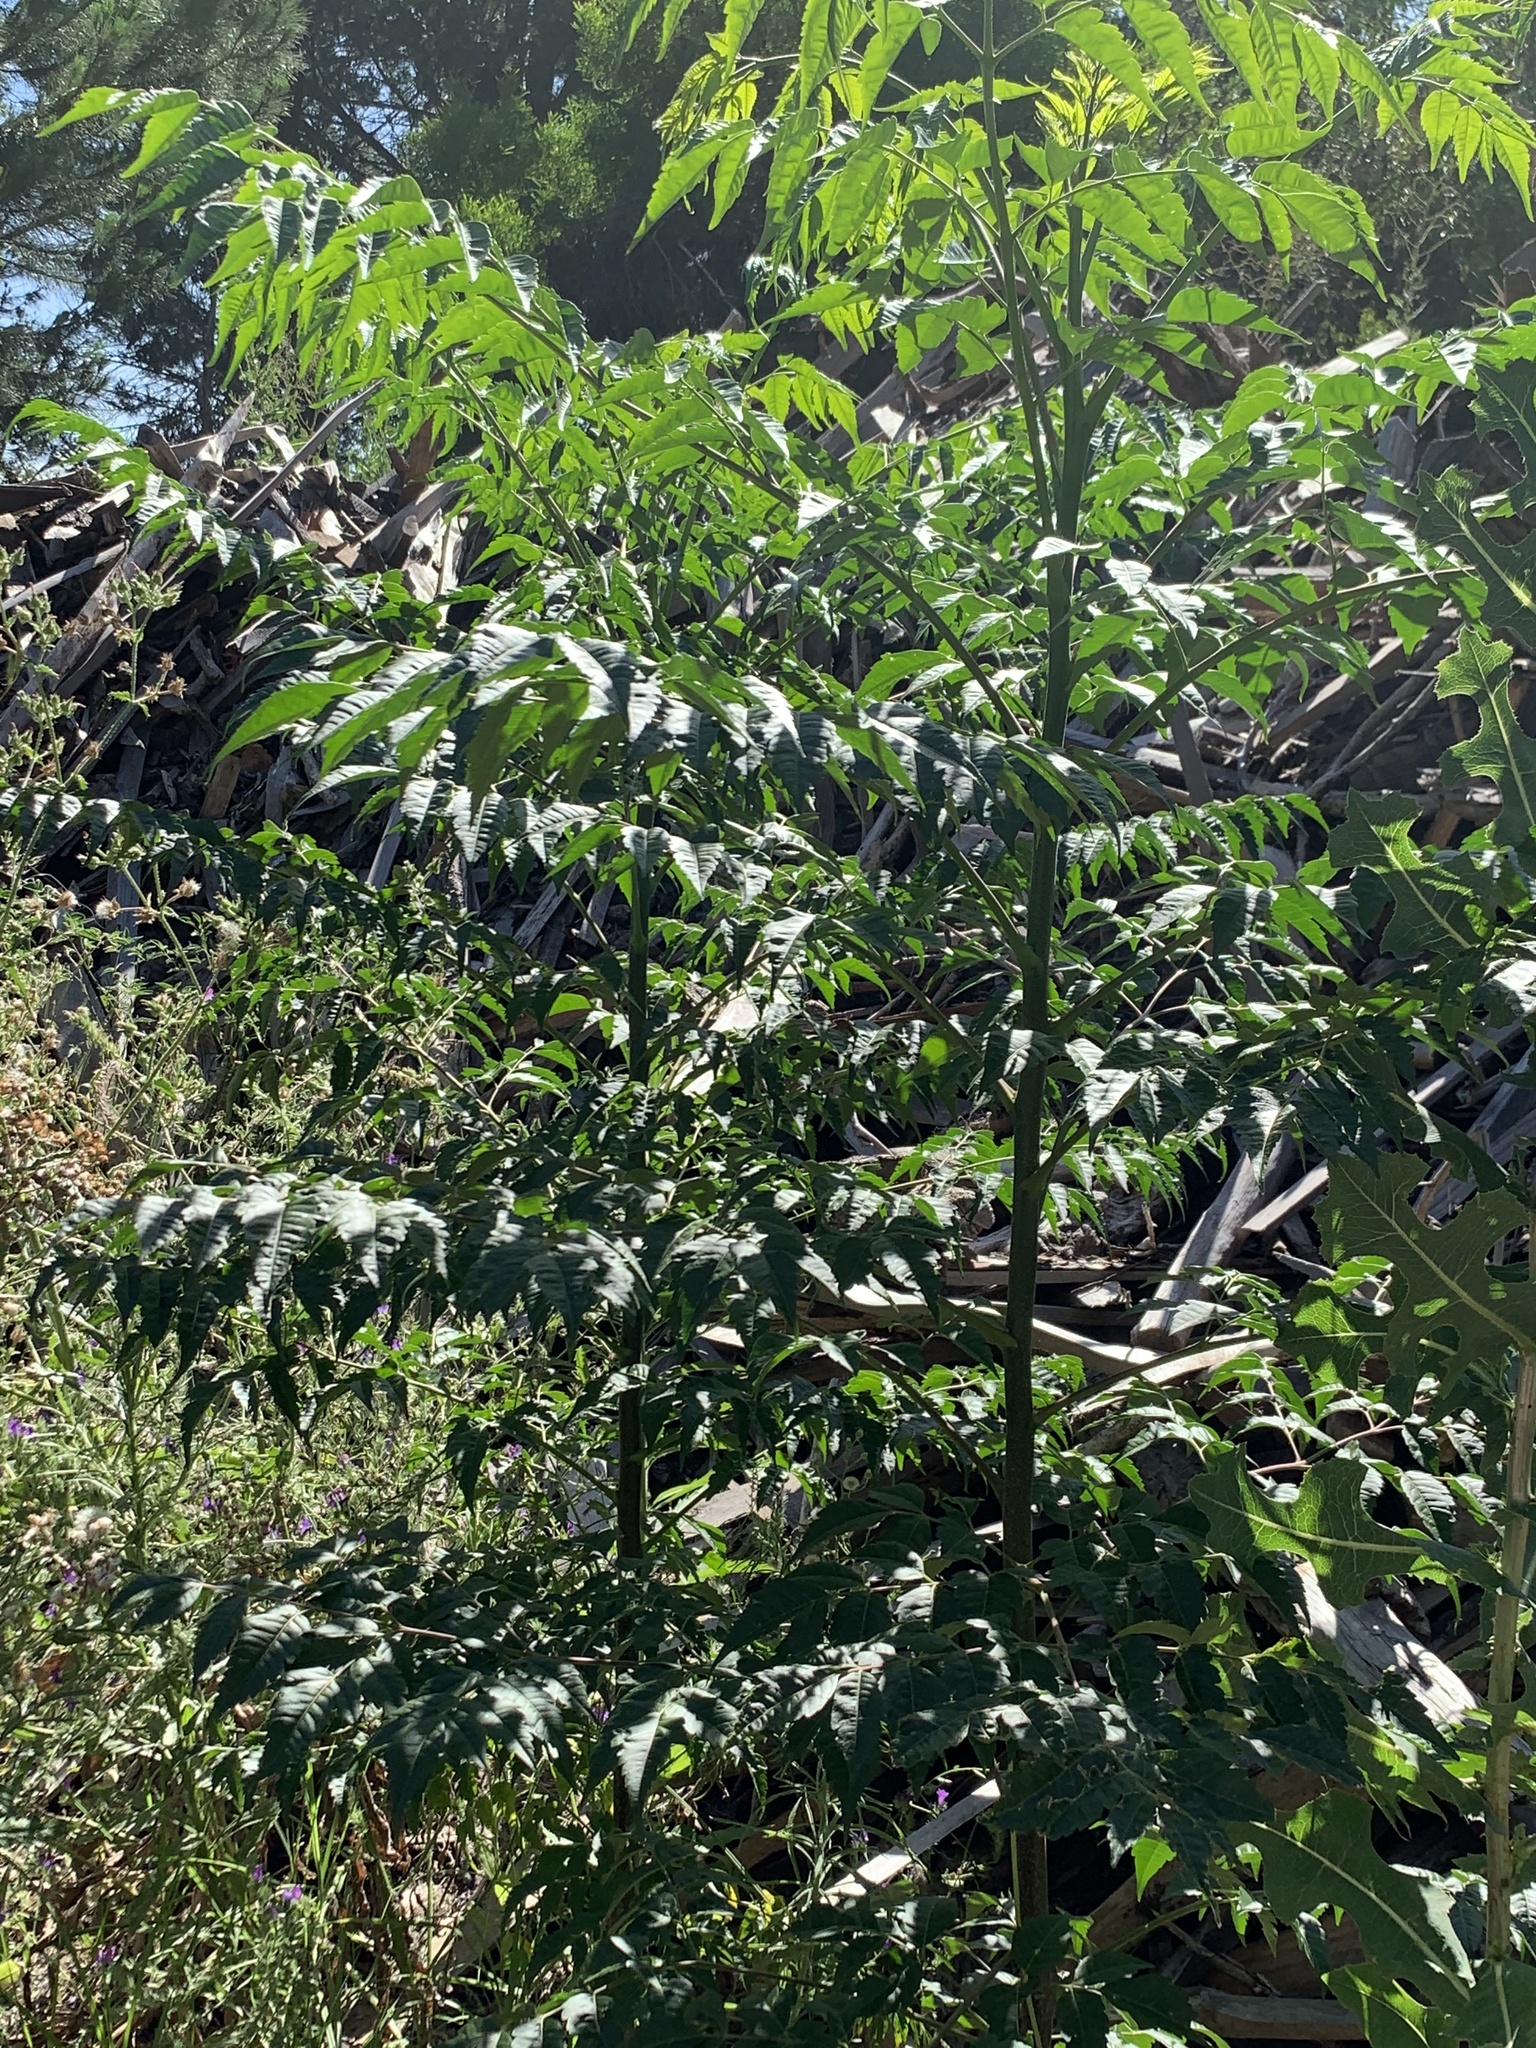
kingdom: Plantae
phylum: Tracheophyta
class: Magnoliopsida
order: Sapindales
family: Meliaceae
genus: Melia
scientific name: Melia azedarach
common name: Chinaberrytree
